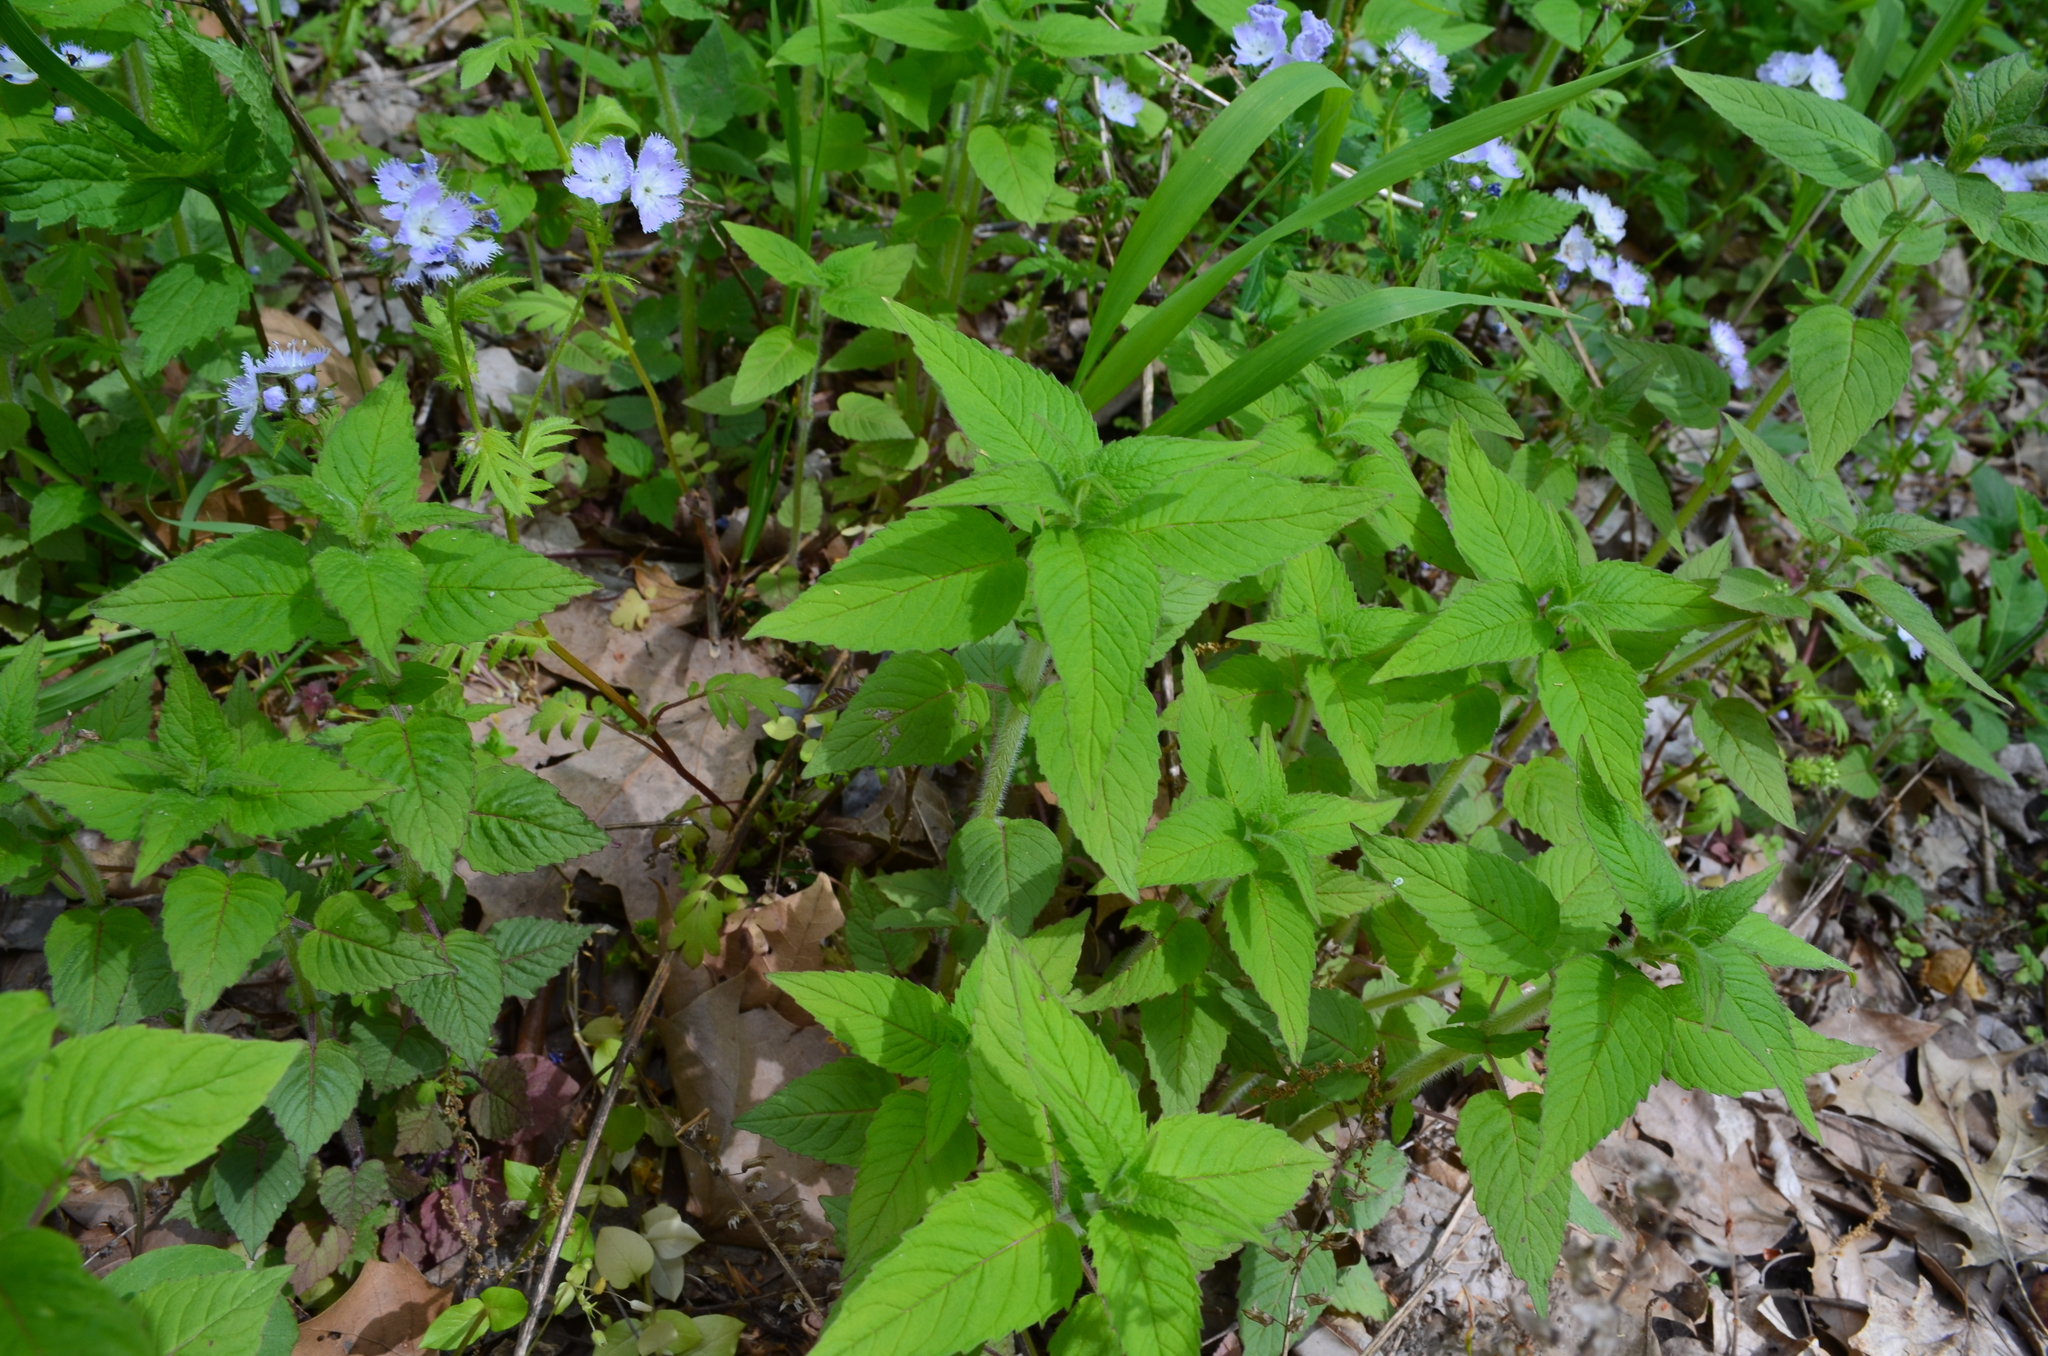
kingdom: Plantae
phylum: Tracheophyta
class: Magnoliopsida
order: Lamiales
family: Lamiaceae
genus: Blephilia
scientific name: Blephilia hirsuta
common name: Hairy blephilia
